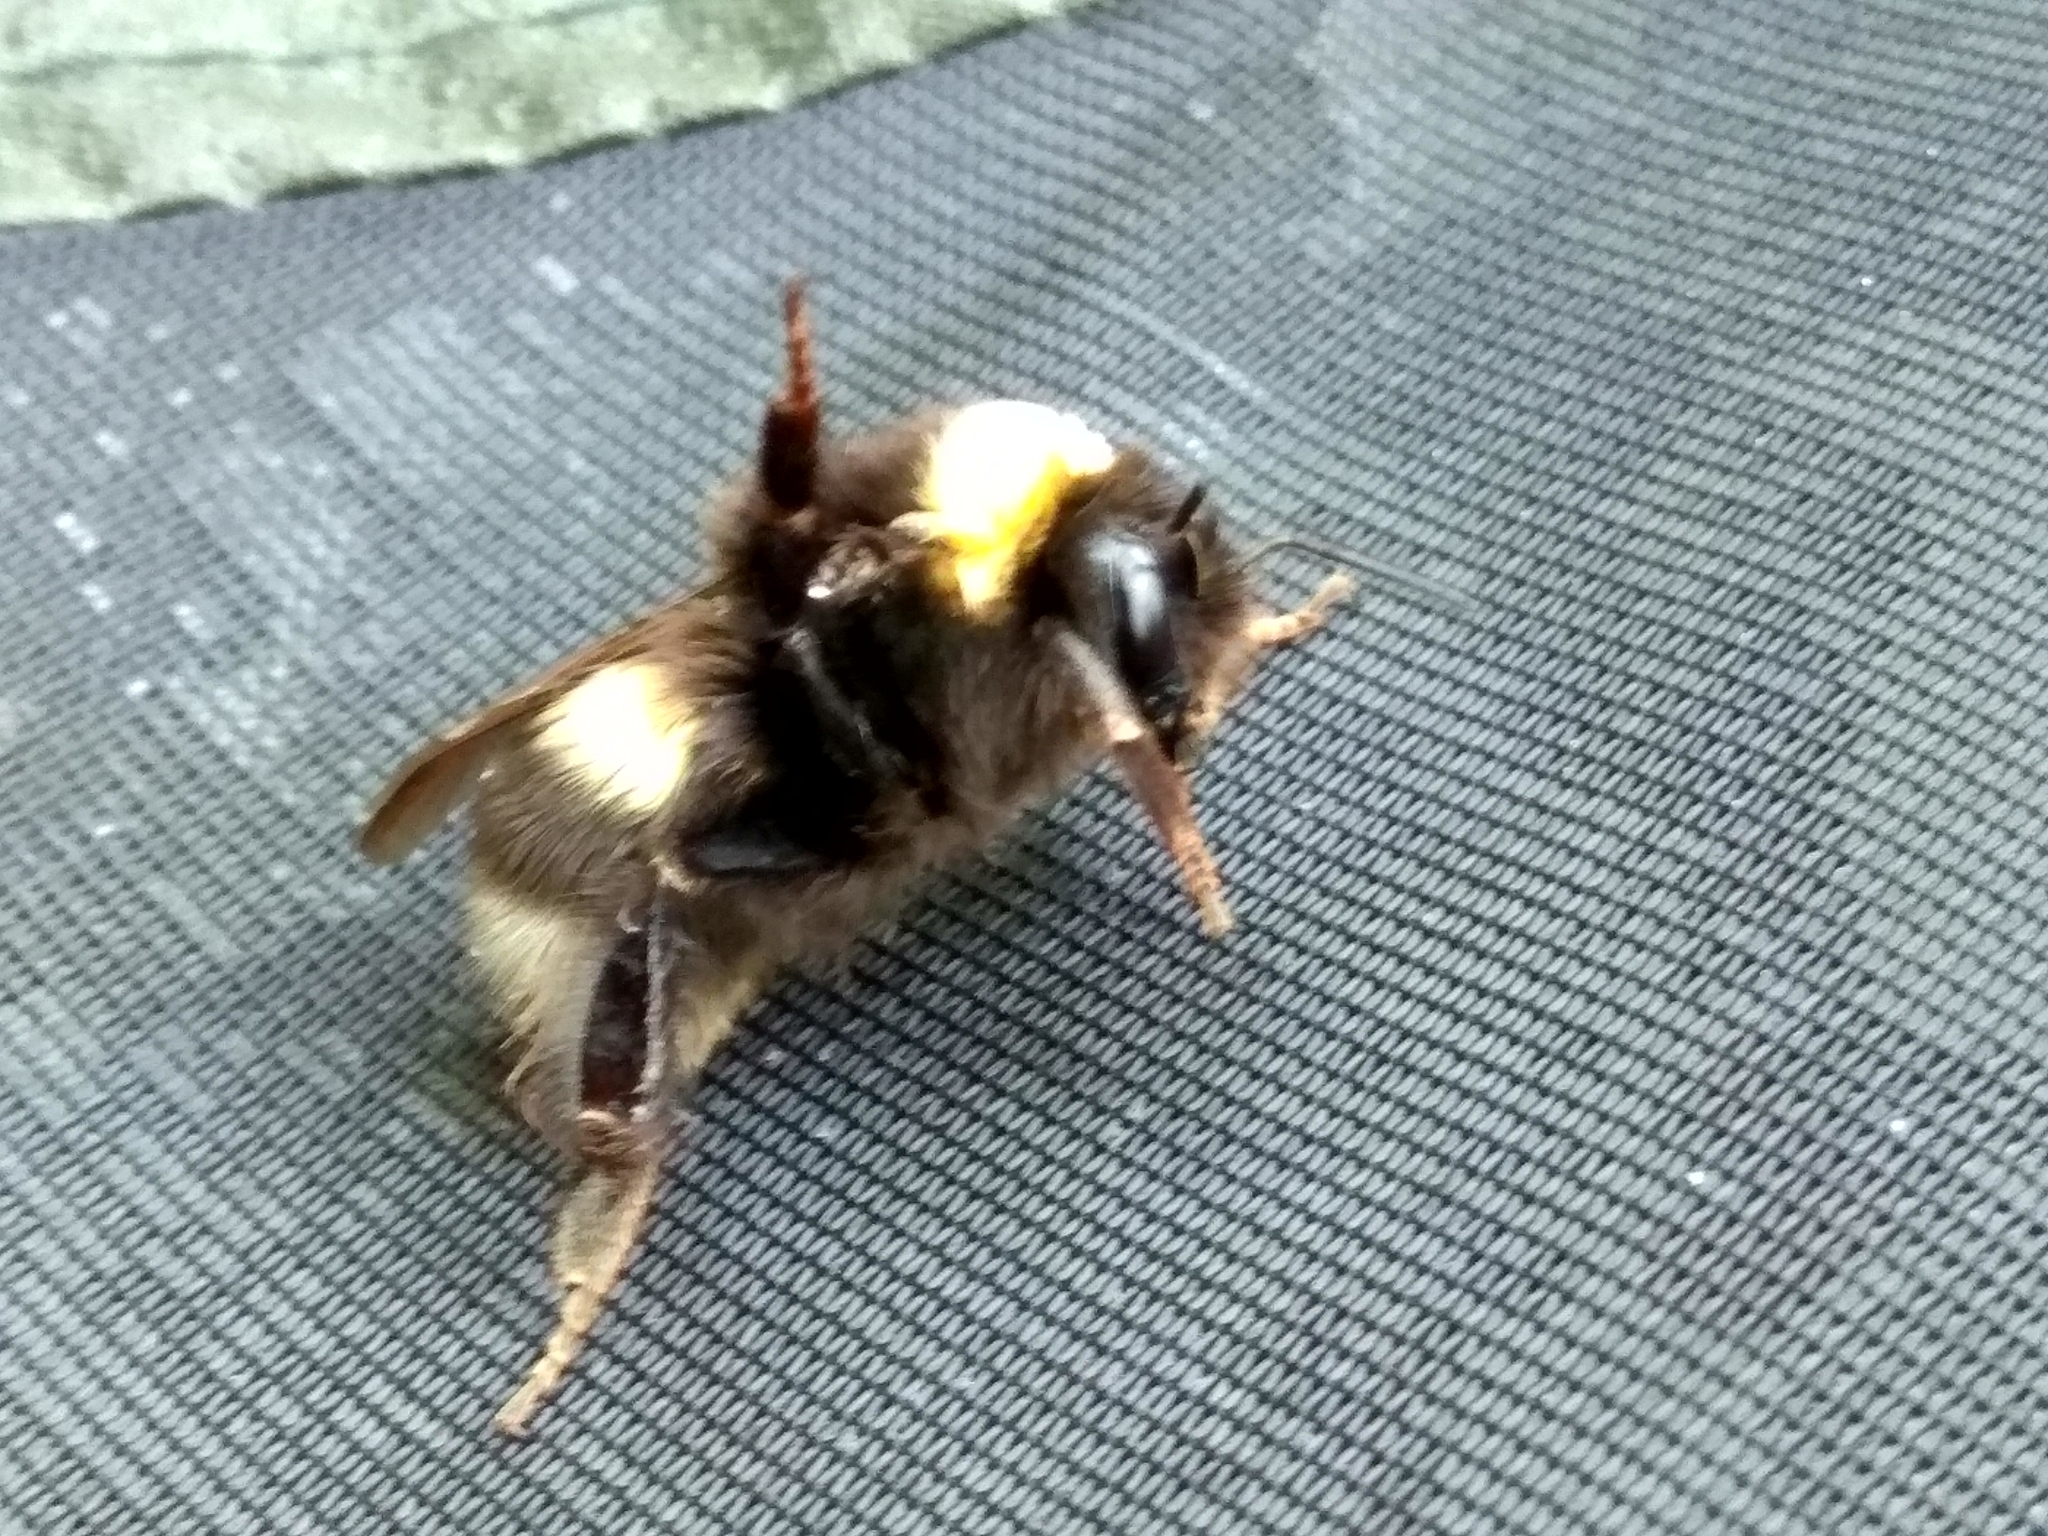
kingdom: Animalia
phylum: Arthropoda
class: Insecta
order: Hymenoptera
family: Apidae
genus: Bombus
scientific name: Bombus
